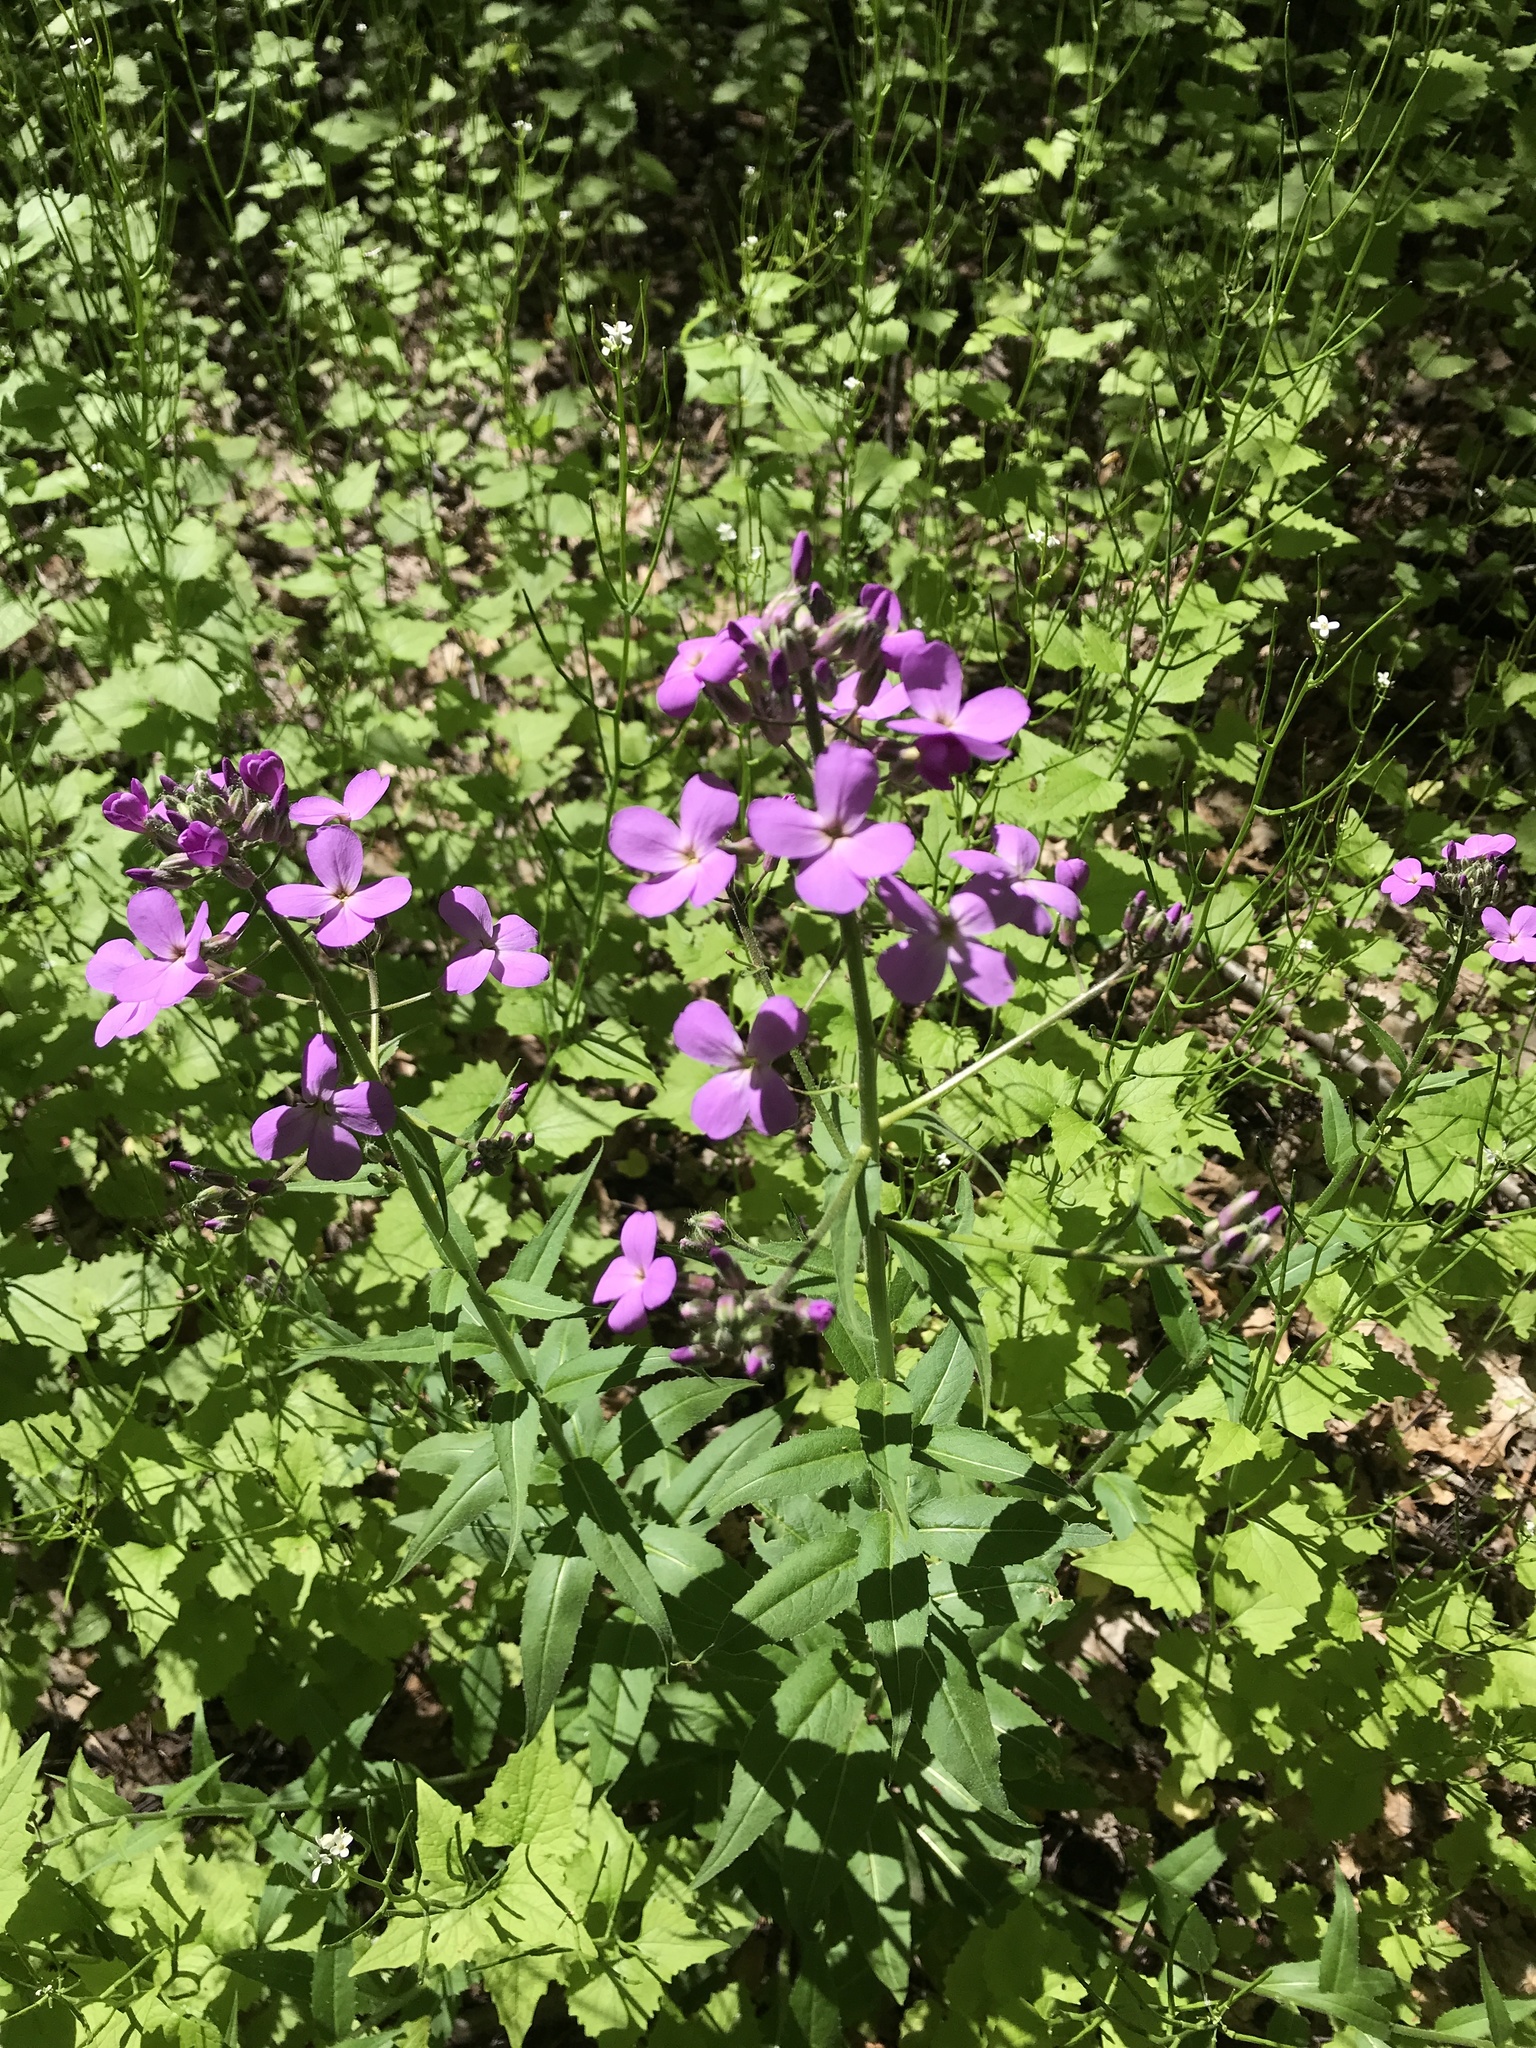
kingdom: Plantae
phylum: Tracheophyta
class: Magnoliopsida
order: Brassicales
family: Brassicaceae
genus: Hesperis
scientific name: Hesperis matronalis
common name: Dame's-violet
